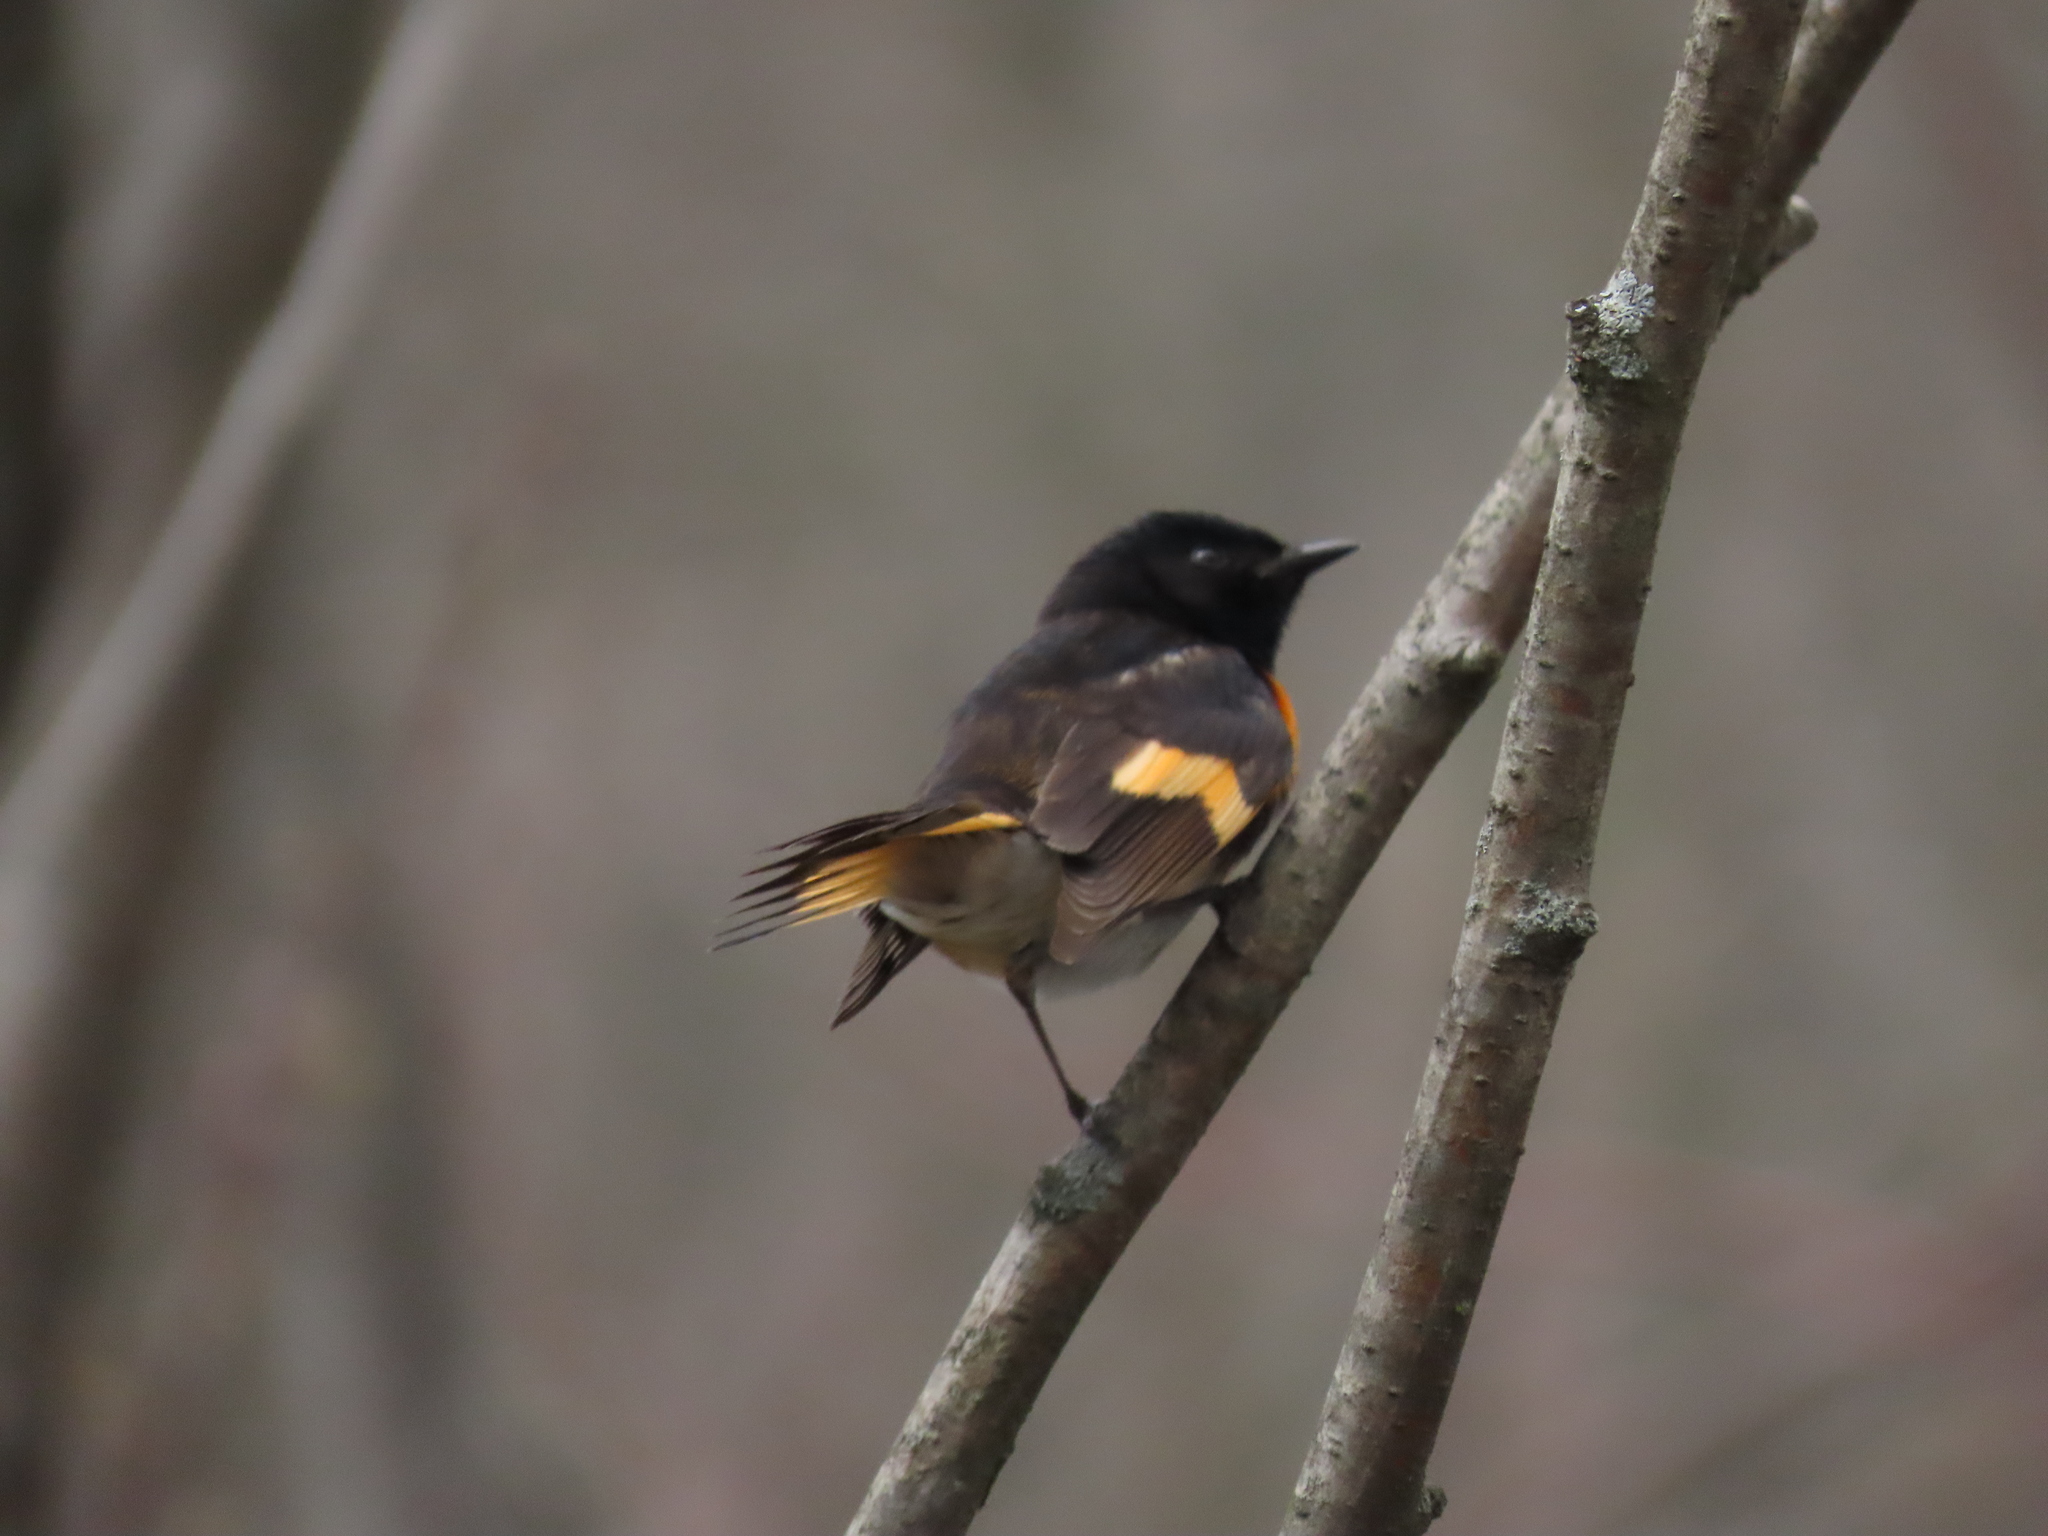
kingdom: Animalia
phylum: Chordata
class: Aves
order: Passeriformes
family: Parulidae
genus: Setophaga
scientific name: Setophaga ruticilla
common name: American redstart
